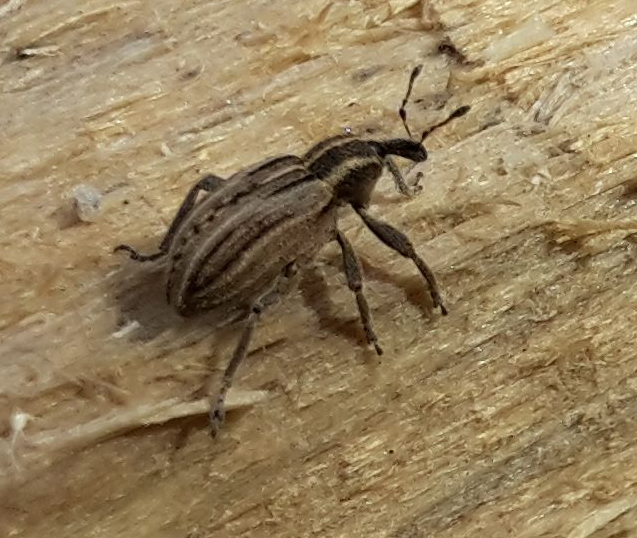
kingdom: Animalia
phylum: Arthropoda
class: Insecta
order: Coleoptera
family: Curculionidae
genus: Hypera
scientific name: Hypera arator
